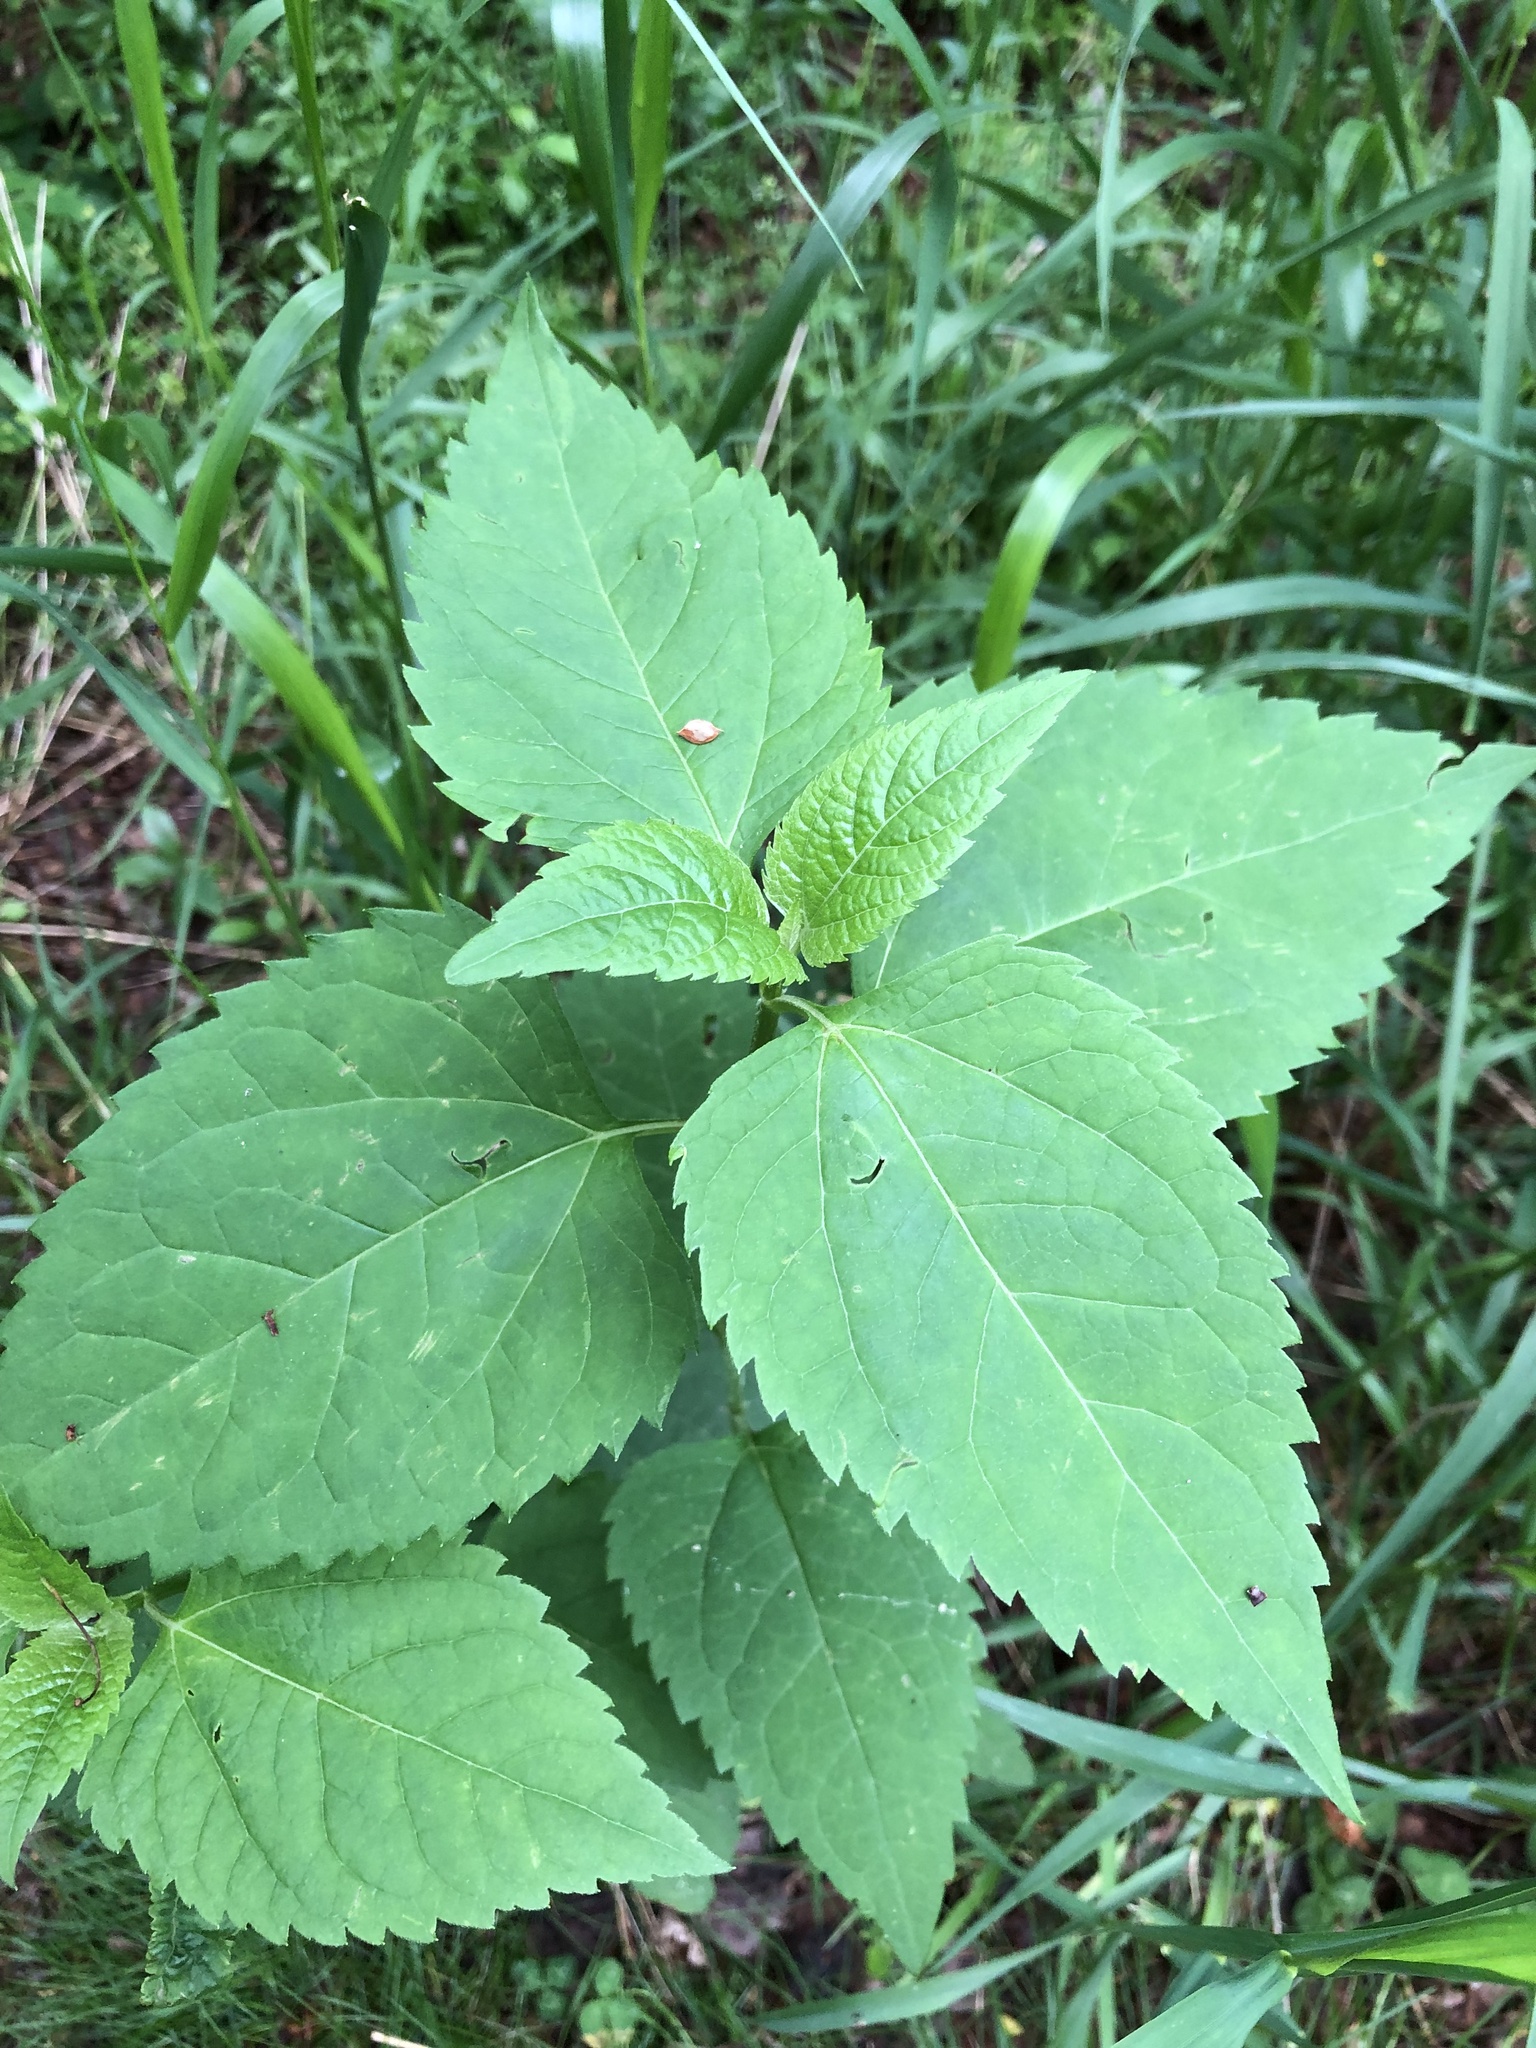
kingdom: Plantae
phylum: Tracheophyta
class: Magnoliopsida
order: Asterales
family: Asteraceae
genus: Ageratina
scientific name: Ageratina altissima
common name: White snakeroot
